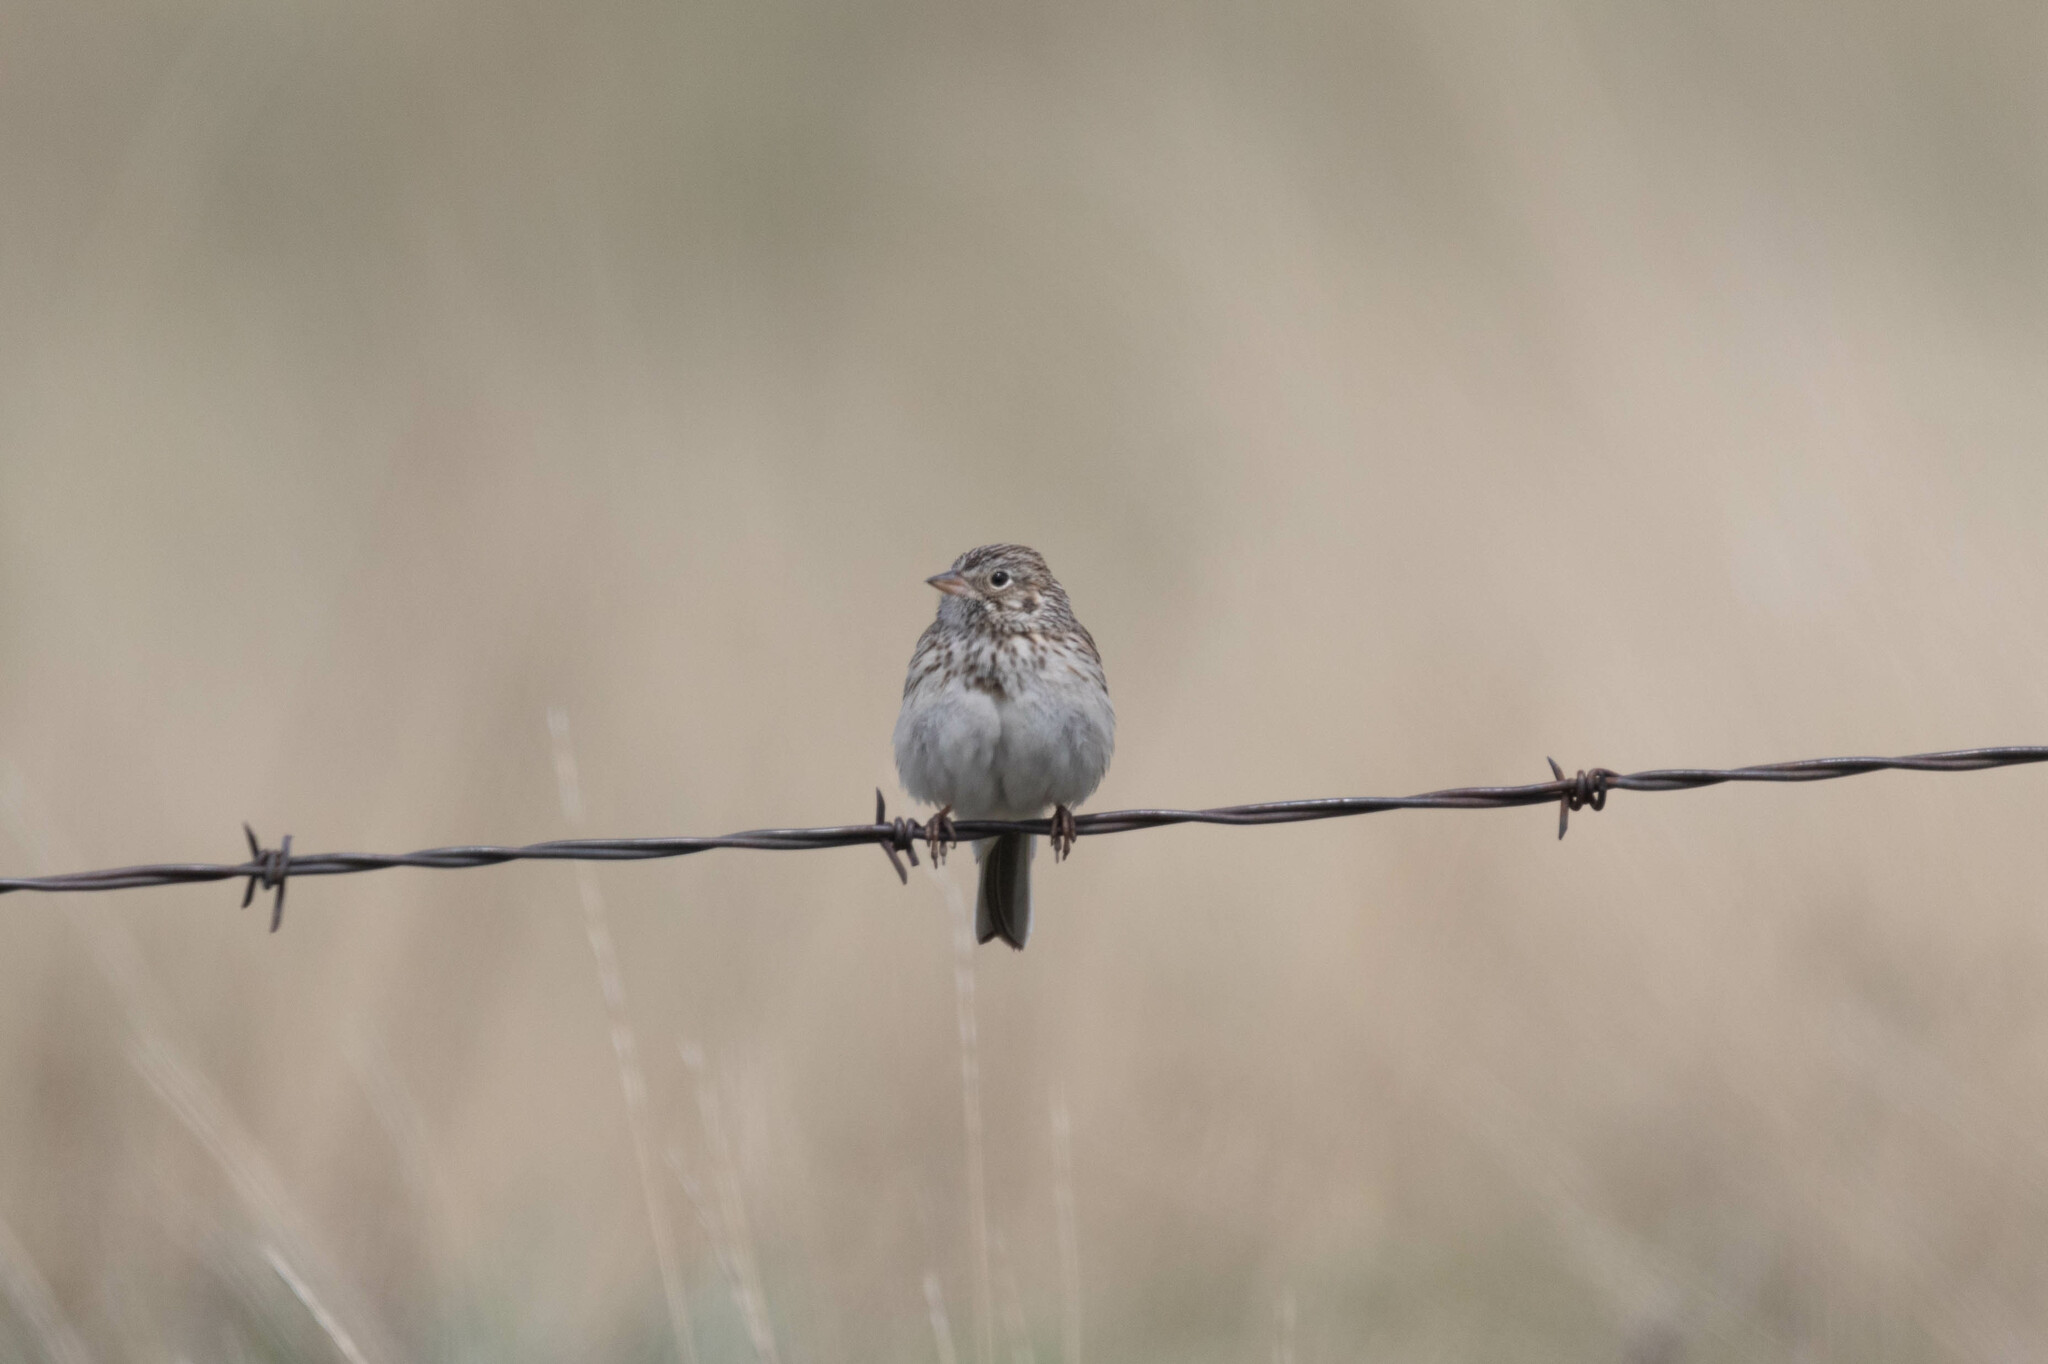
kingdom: Animalia
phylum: Chordata
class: Aves
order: Passeriformes
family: Passerellidae
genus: Pooecetes
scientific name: Pooecetes gramineus
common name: Vesper sparrow
